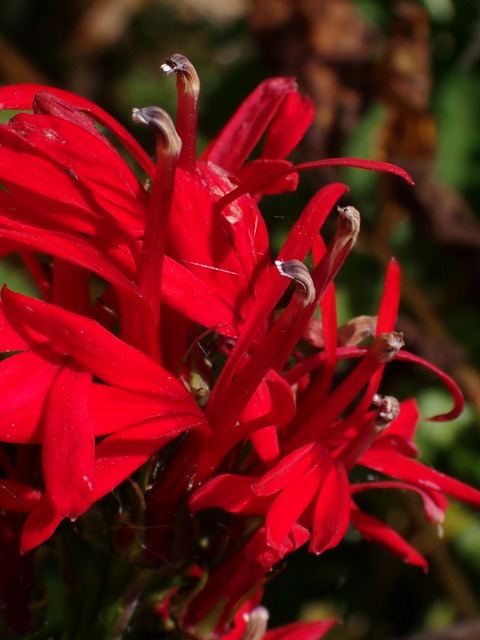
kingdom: Plantae
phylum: Tracheophyta
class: Magnoliopsida
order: Asterales
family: Campanulaceae
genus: Lobelia
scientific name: Lobelia cardinalis
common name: Cardinal flower
